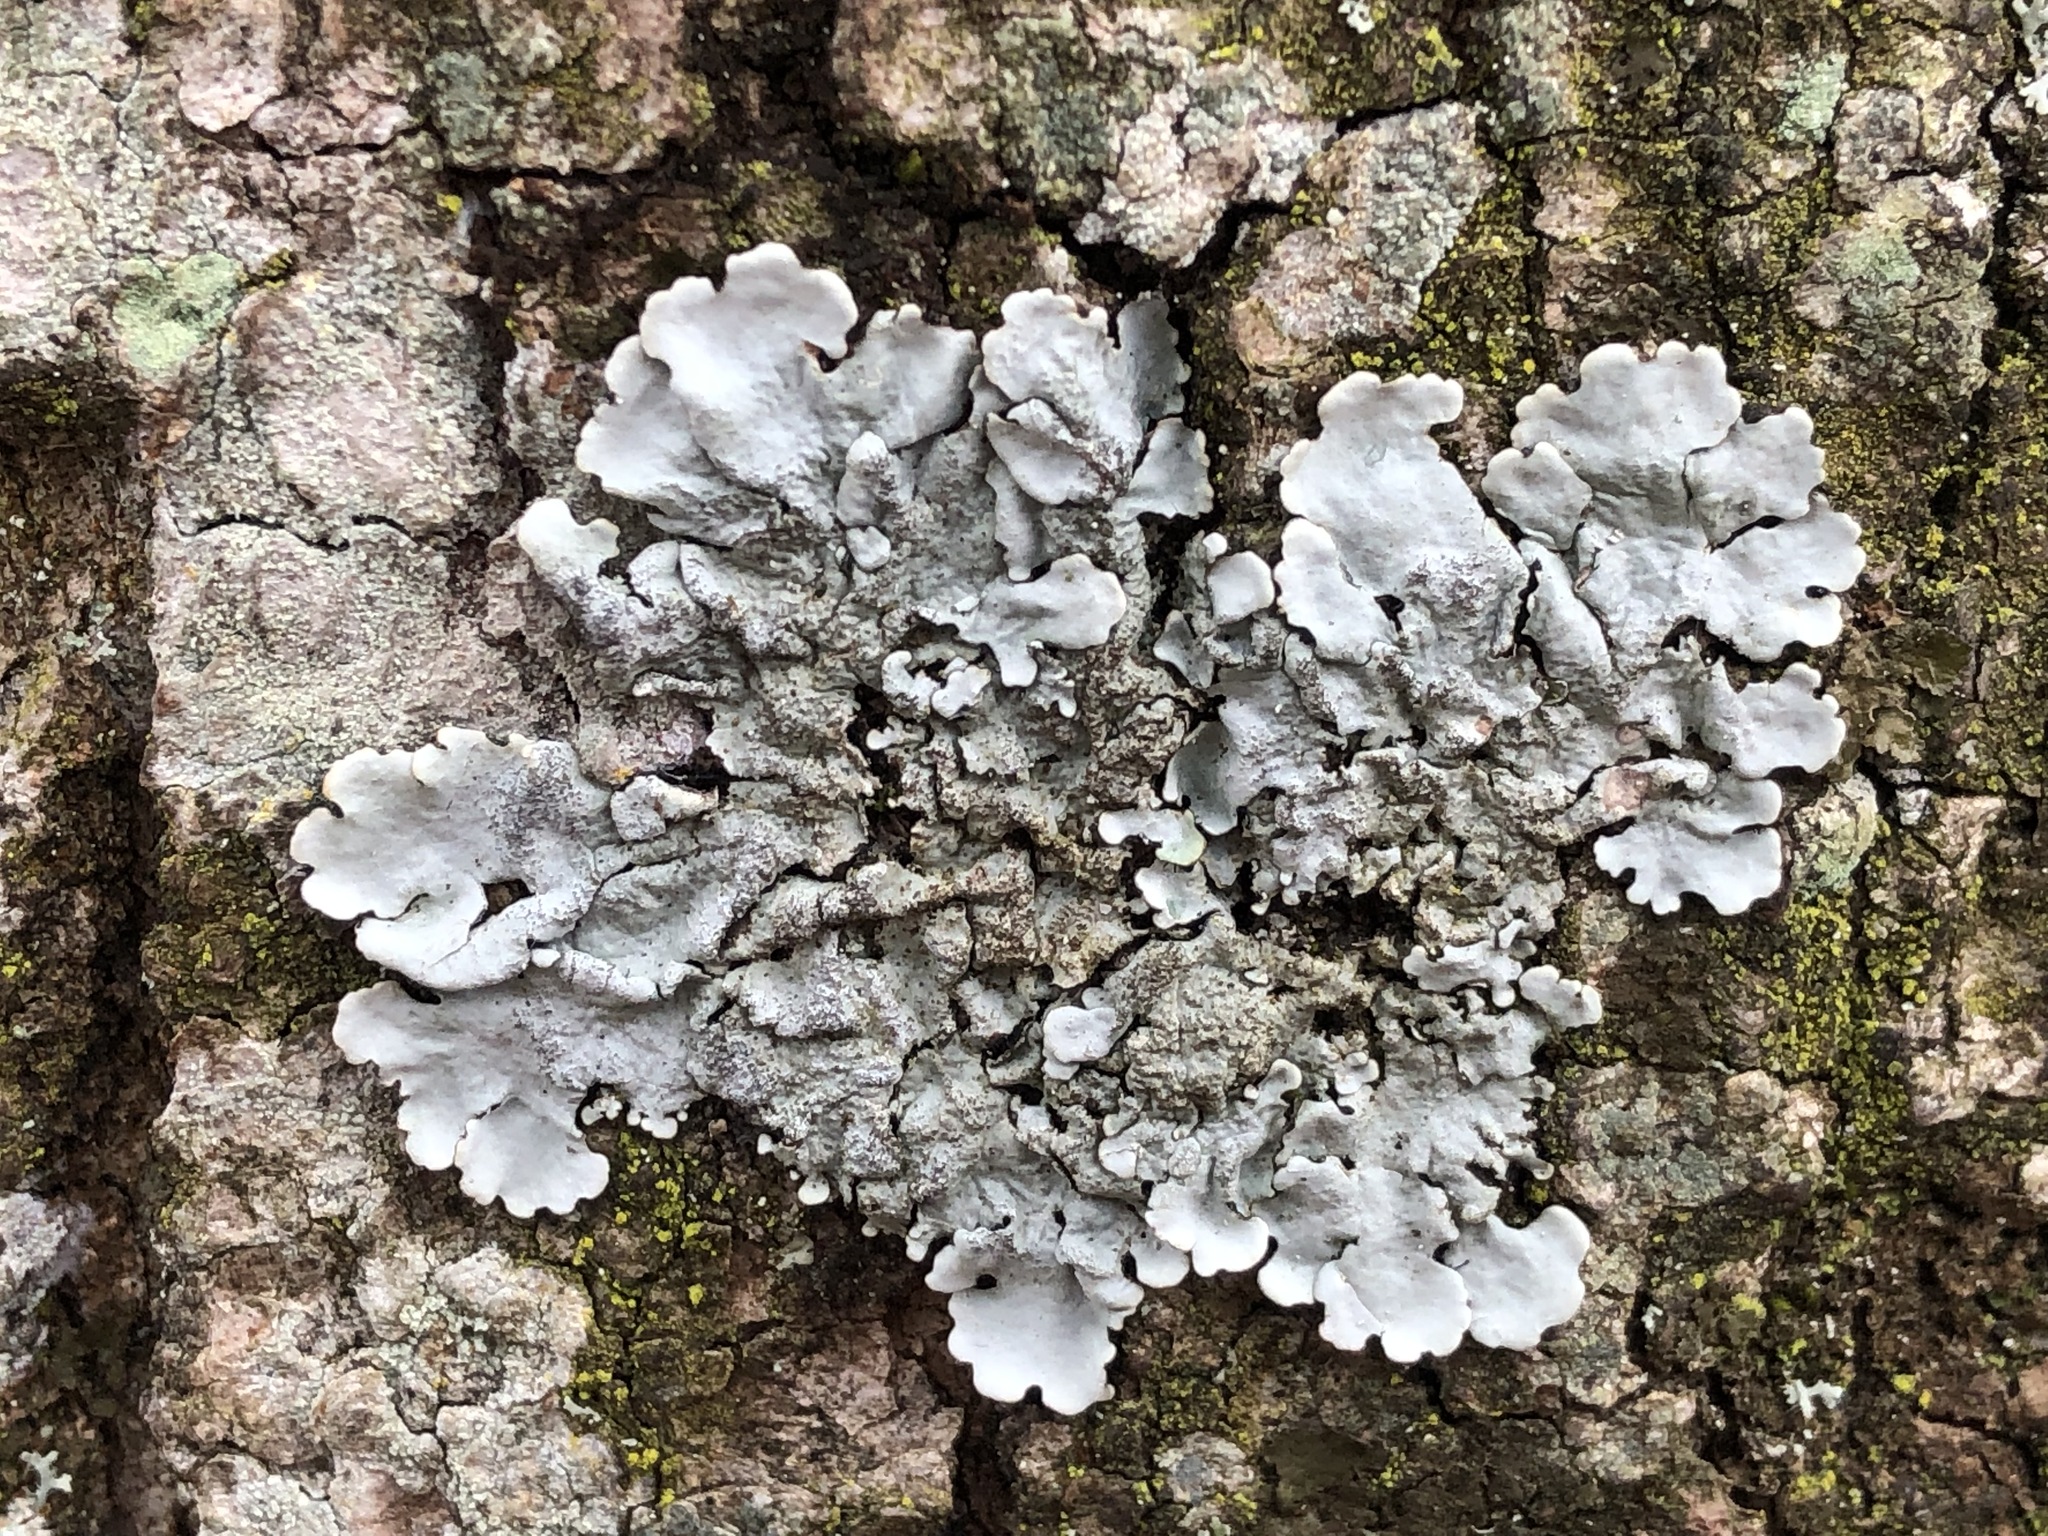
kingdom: Fungi
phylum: Ascomycota
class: Lecanoromycetes
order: Lecanorales
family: Parmeliaceae
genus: Parmelina
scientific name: Parmelina tiliacea
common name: Linden shield lichen
